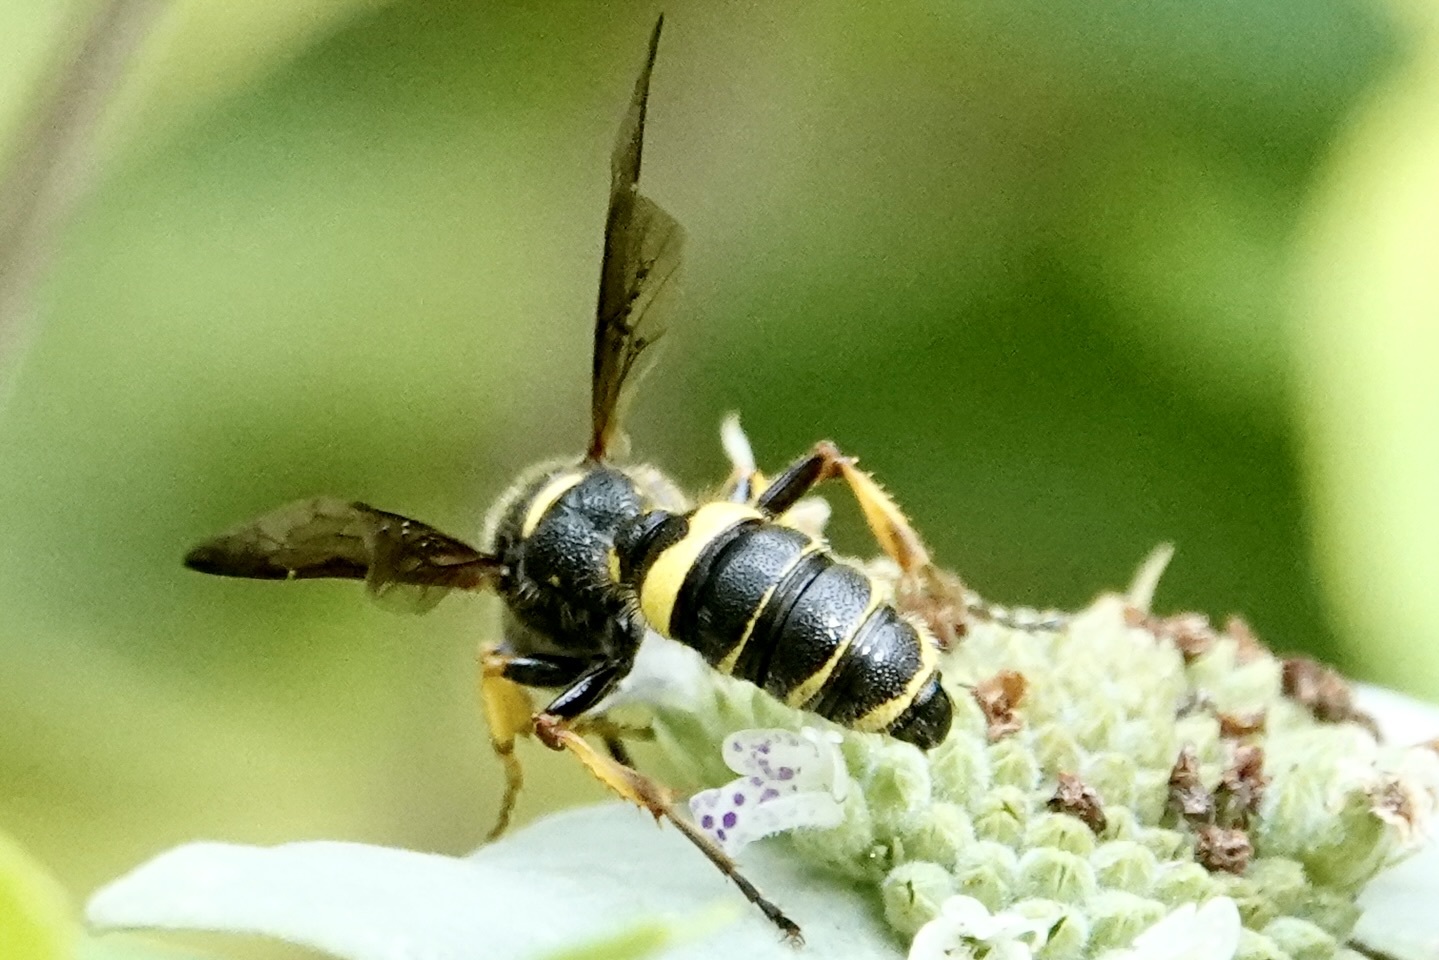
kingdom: Animalia
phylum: Arthropoda
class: Insecta
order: Hymenoptera
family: Crabronidae
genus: Cerceris
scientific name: Cerceris atramontensis
